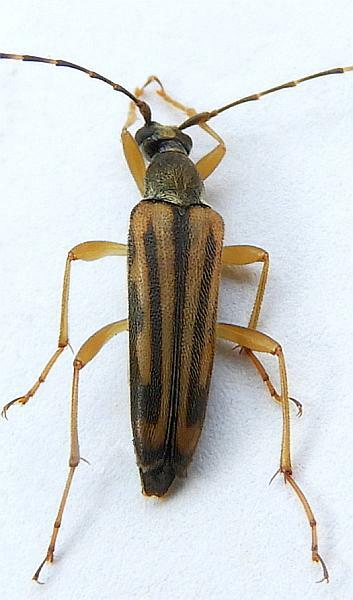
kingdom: Animalia
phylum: Arthropoda
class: Insecta
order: Coleoptera
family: Cerambycidae
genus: Analeptura
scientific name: Analeptura lineola
